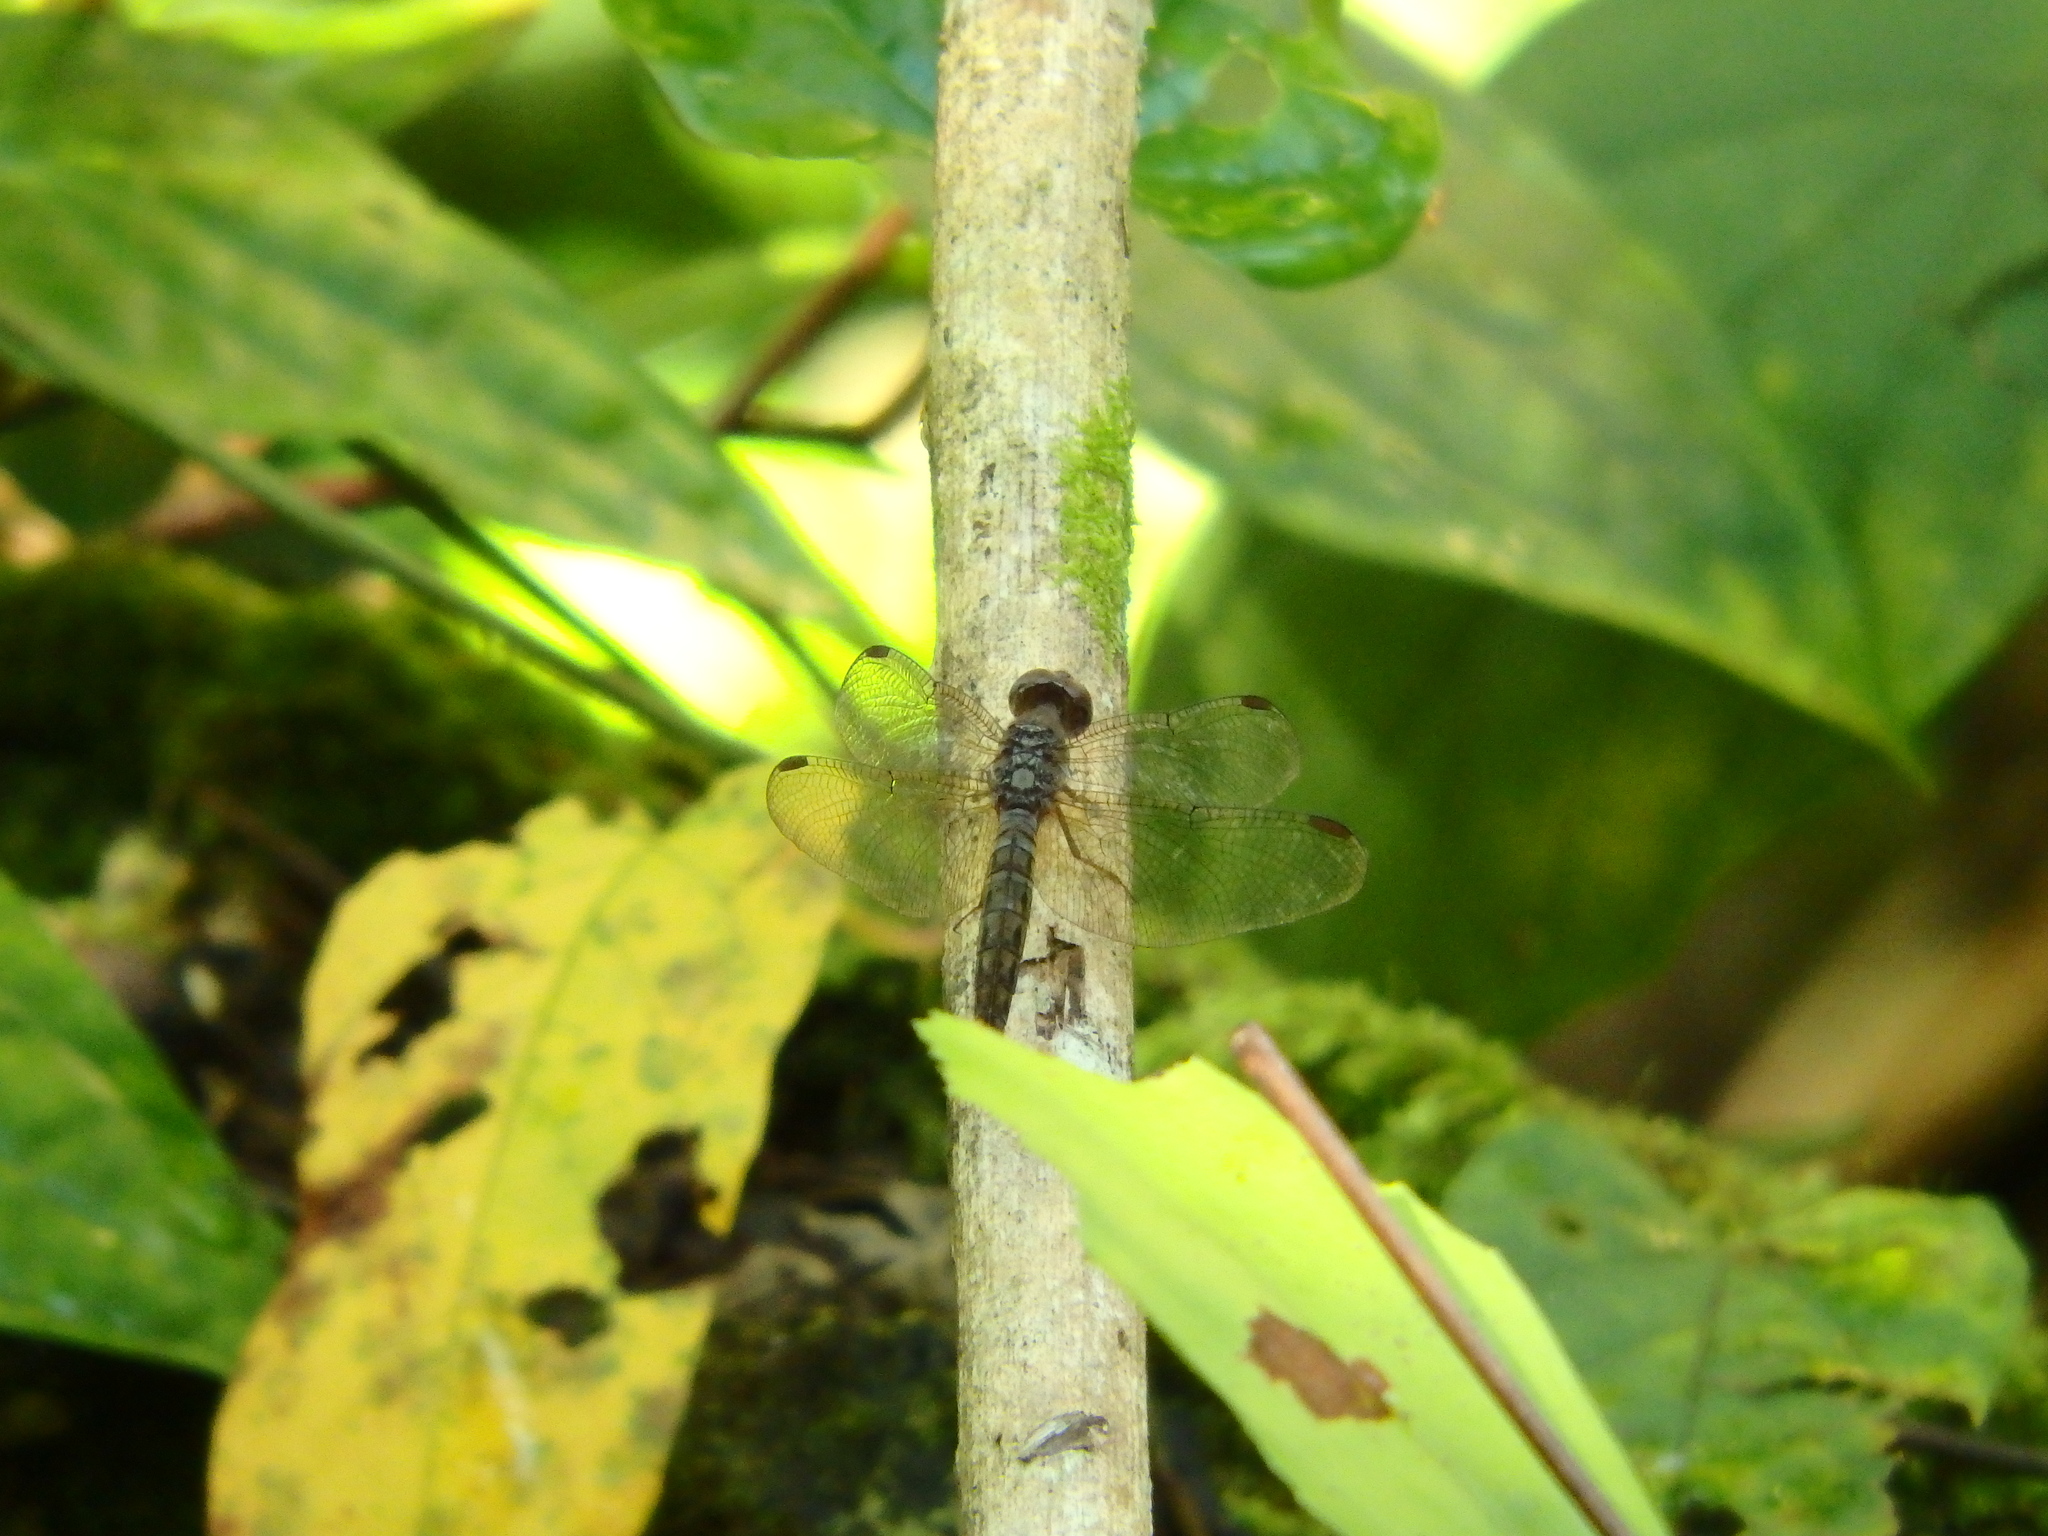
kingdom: Animalia
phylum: Arthropoda
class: Insecta
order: Odonata
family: Libellulidae
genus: Neurothemis
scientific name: Neurothemis fluctuans
